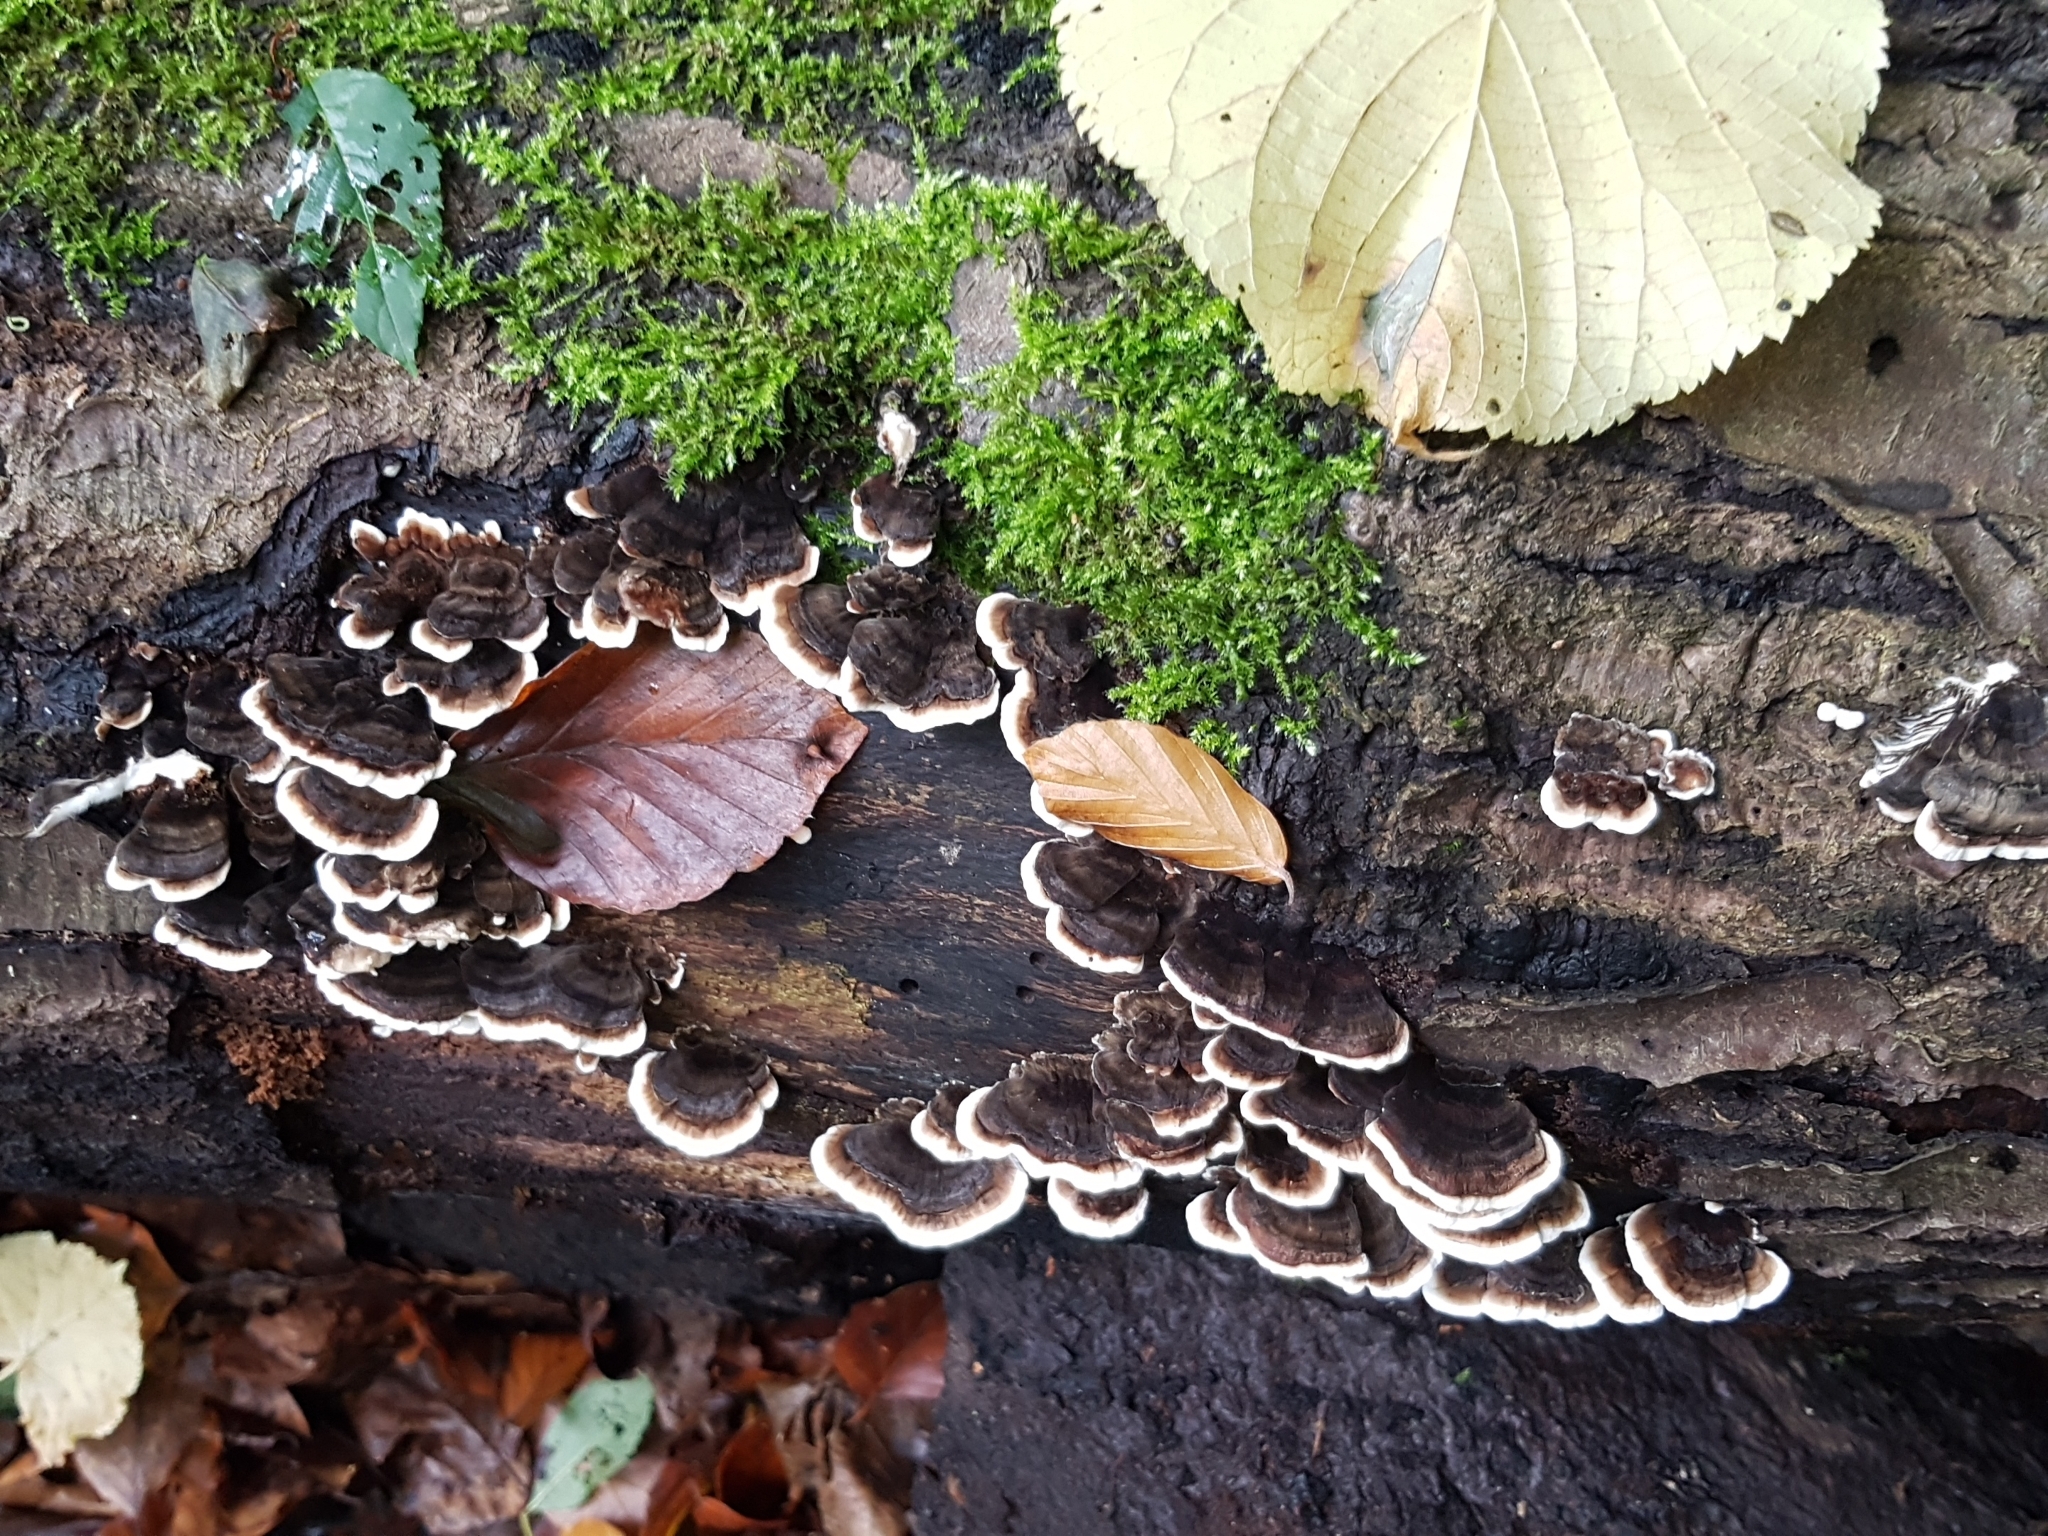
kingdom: Fungi
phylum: Basidiomycota
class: Agaricomycetes
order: Polyporales
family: Polyporaceae
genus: Trametes
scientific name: Trametes versicolor
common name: Turkeytail
